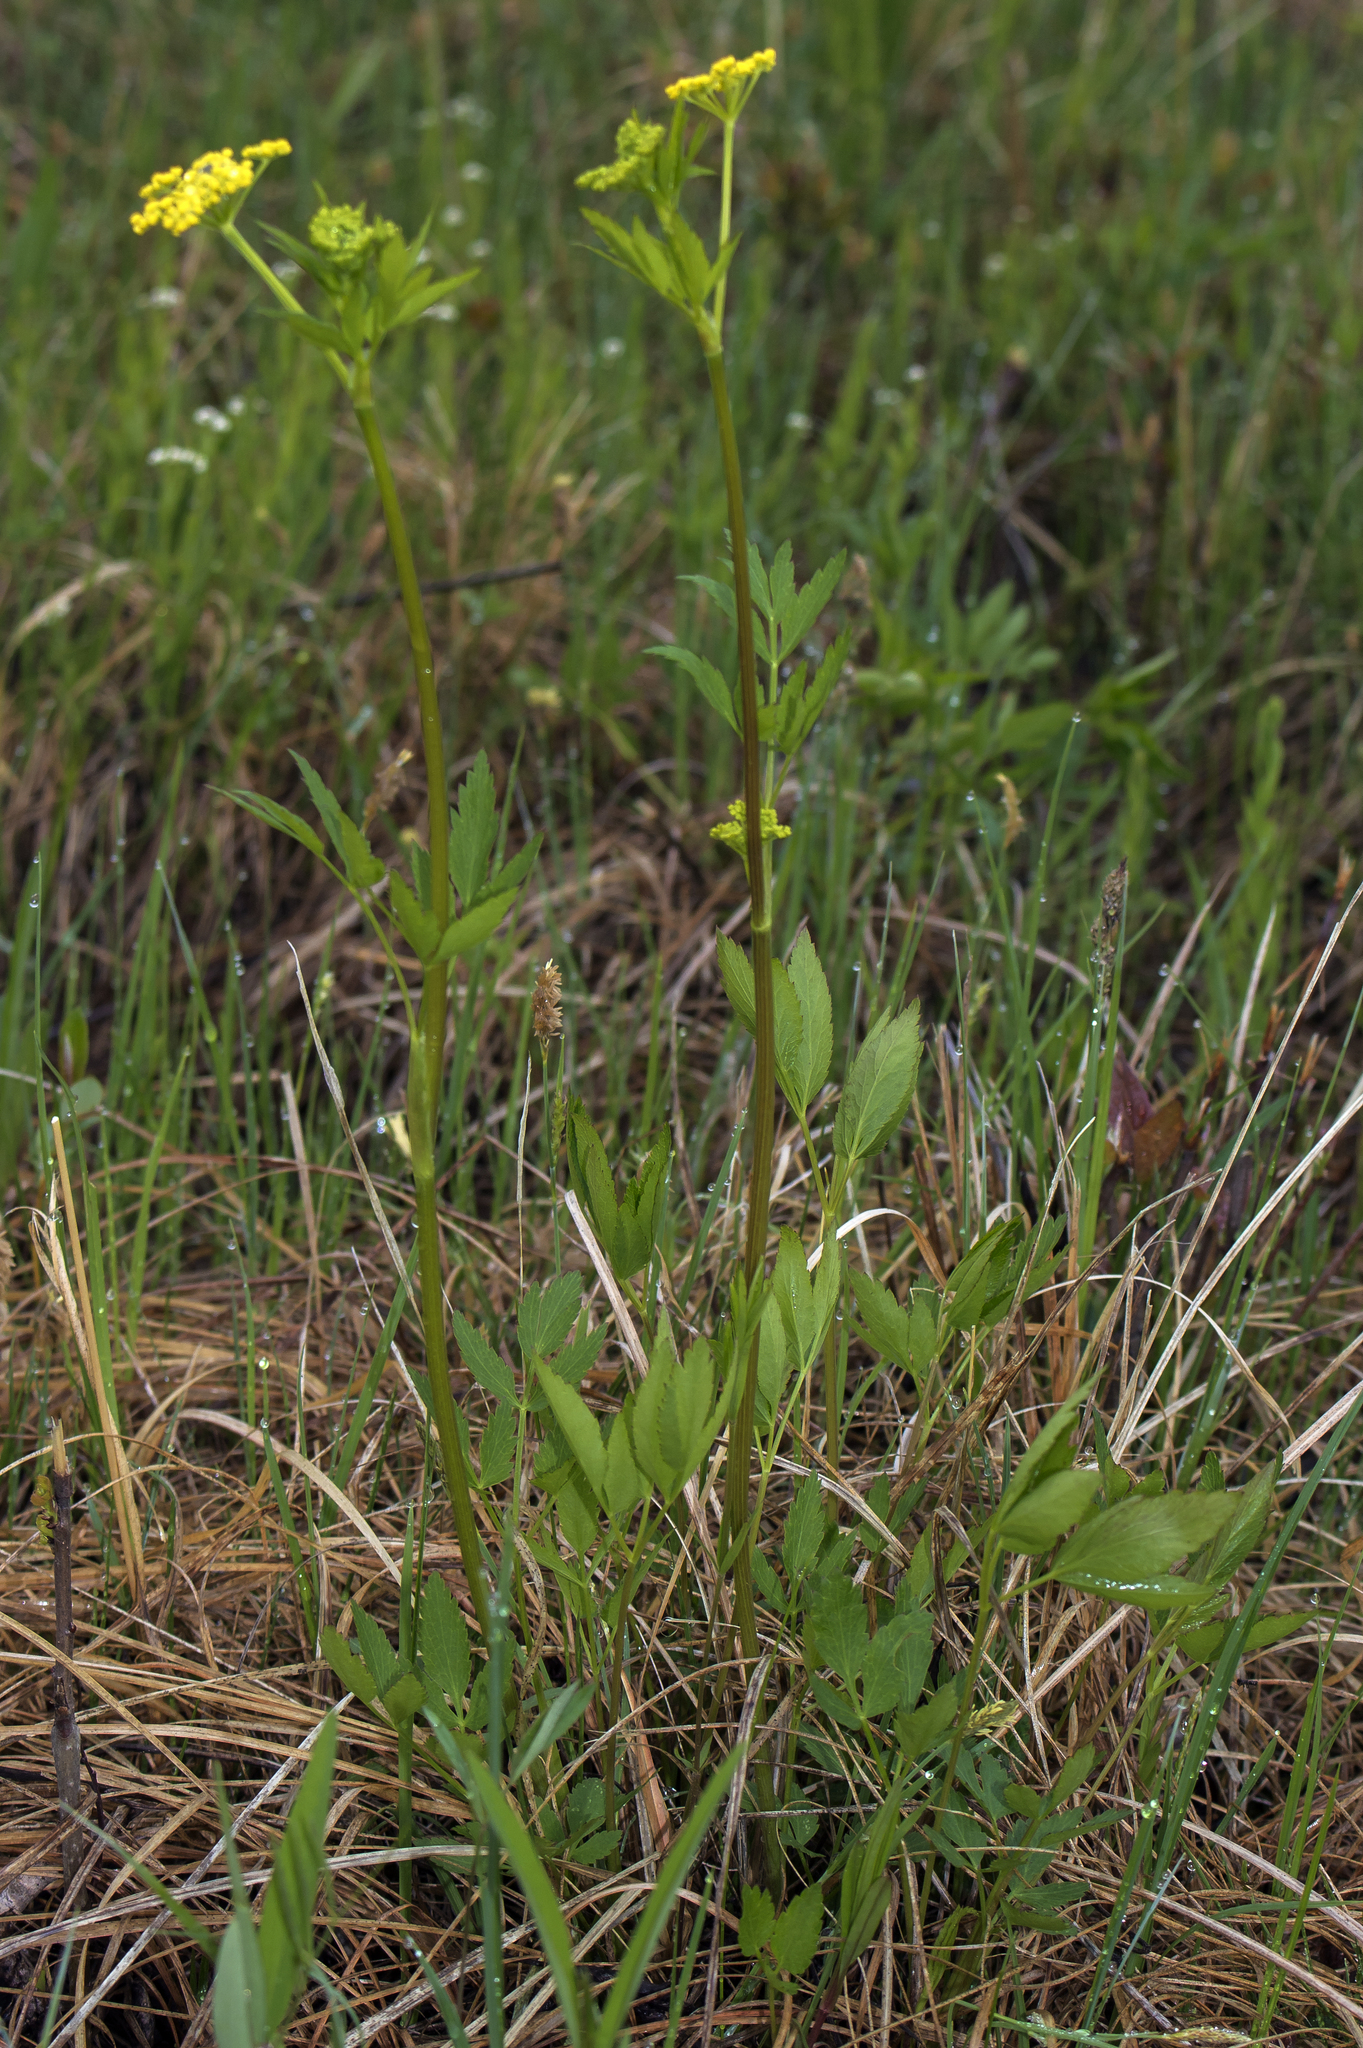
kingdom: Plantae
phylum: Tracheophyta
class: Magnoliopsida
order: Apiales
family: Apiaceae
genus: Zizia
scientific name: Zizia aurea
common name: Golden alexanders
